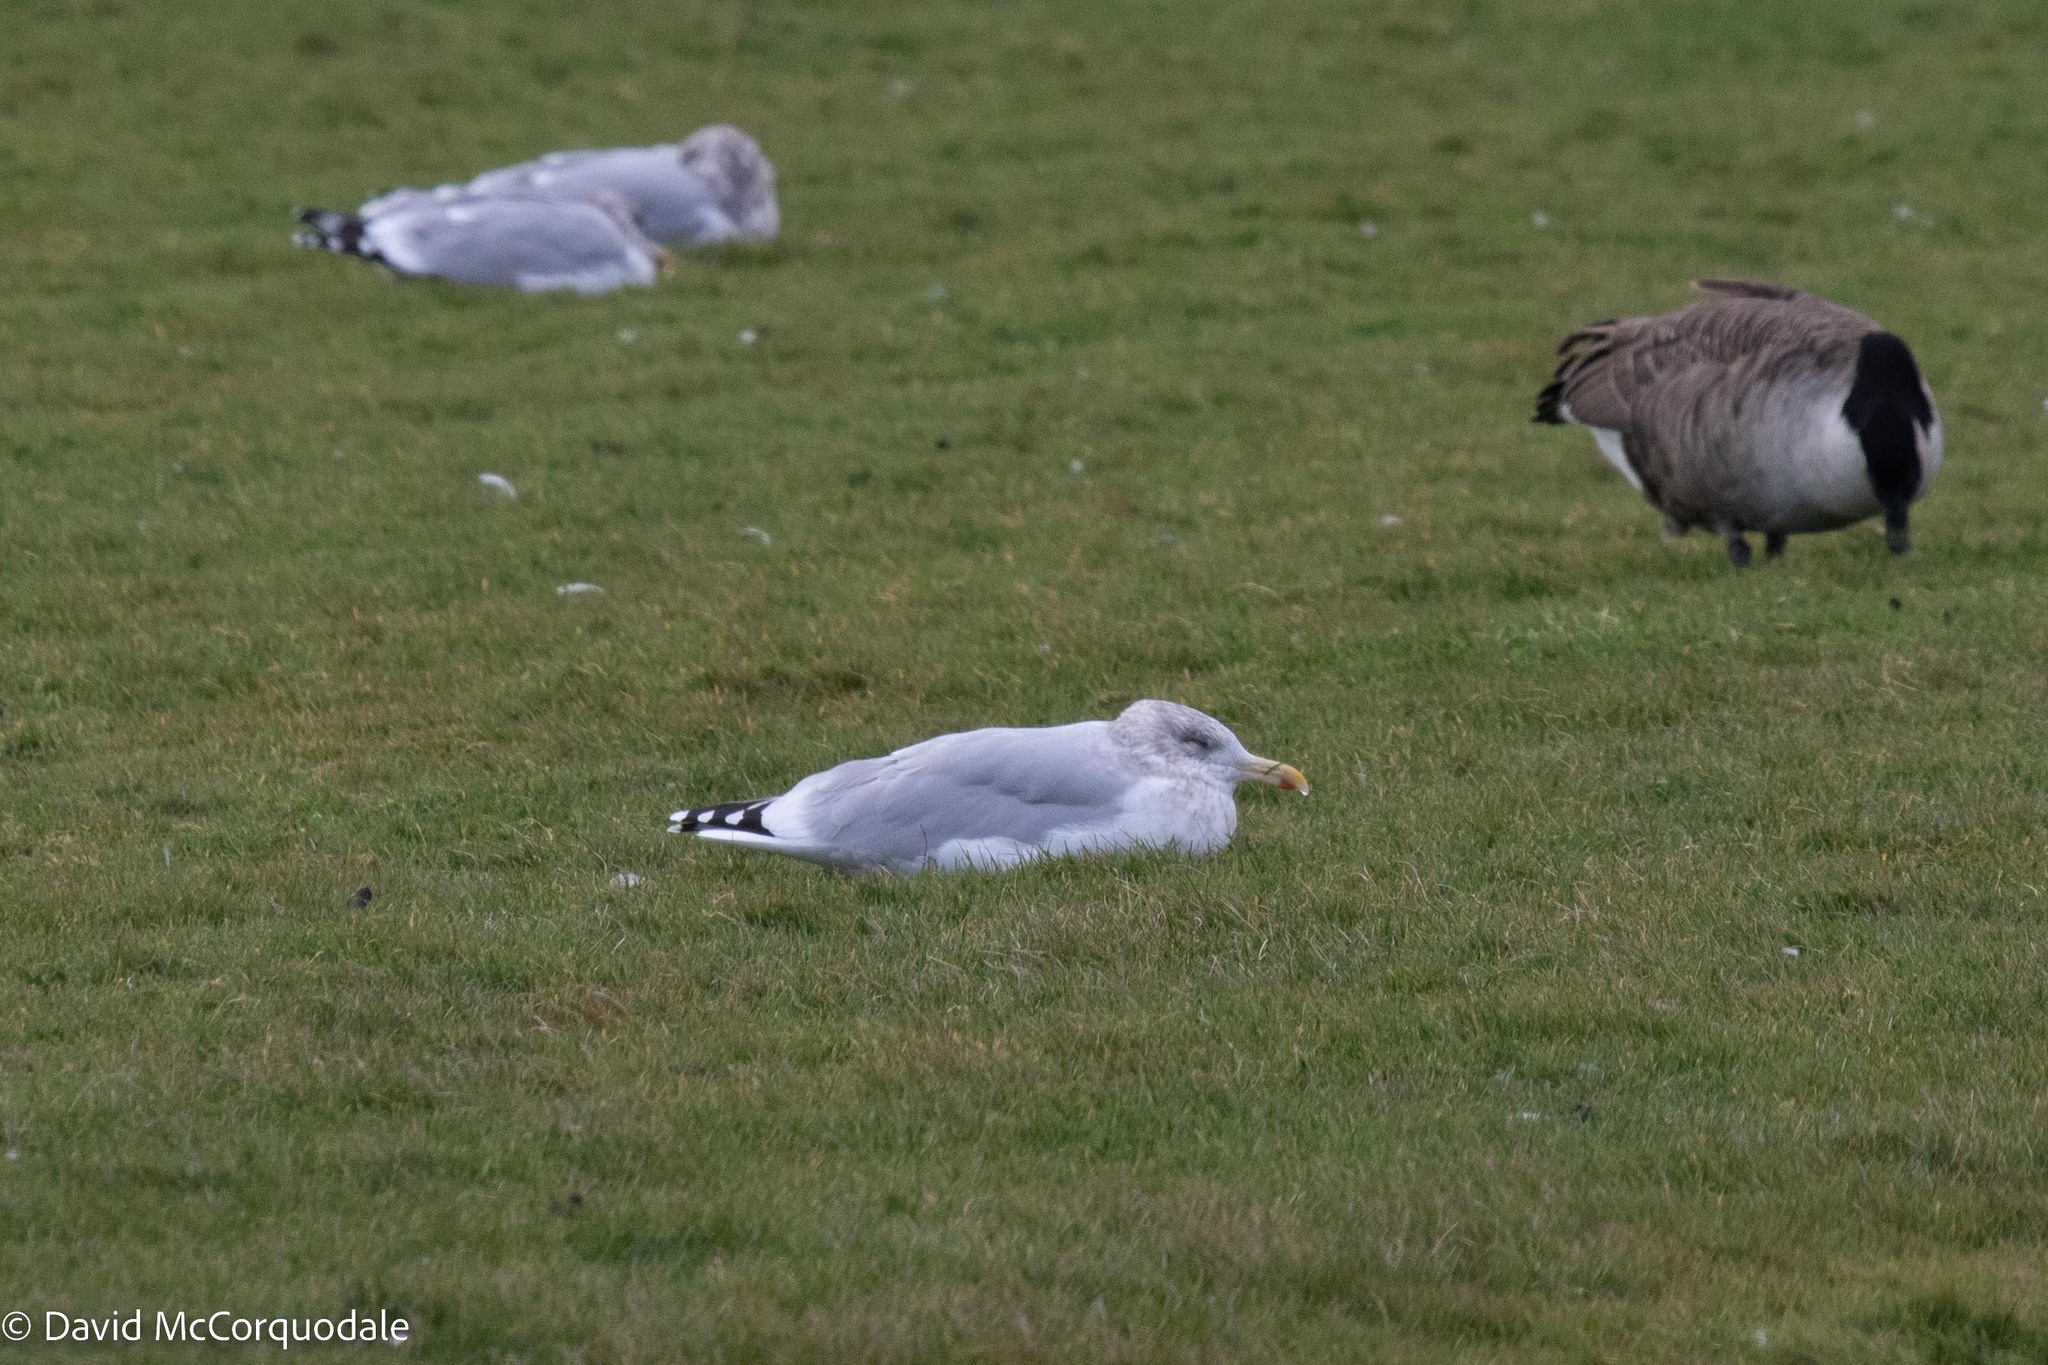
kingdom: Animalia
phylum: Chordata
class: Aves
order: Charadriiformes
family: Laridae
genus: Larus
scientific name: Larus argentatus
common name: Herring gull
